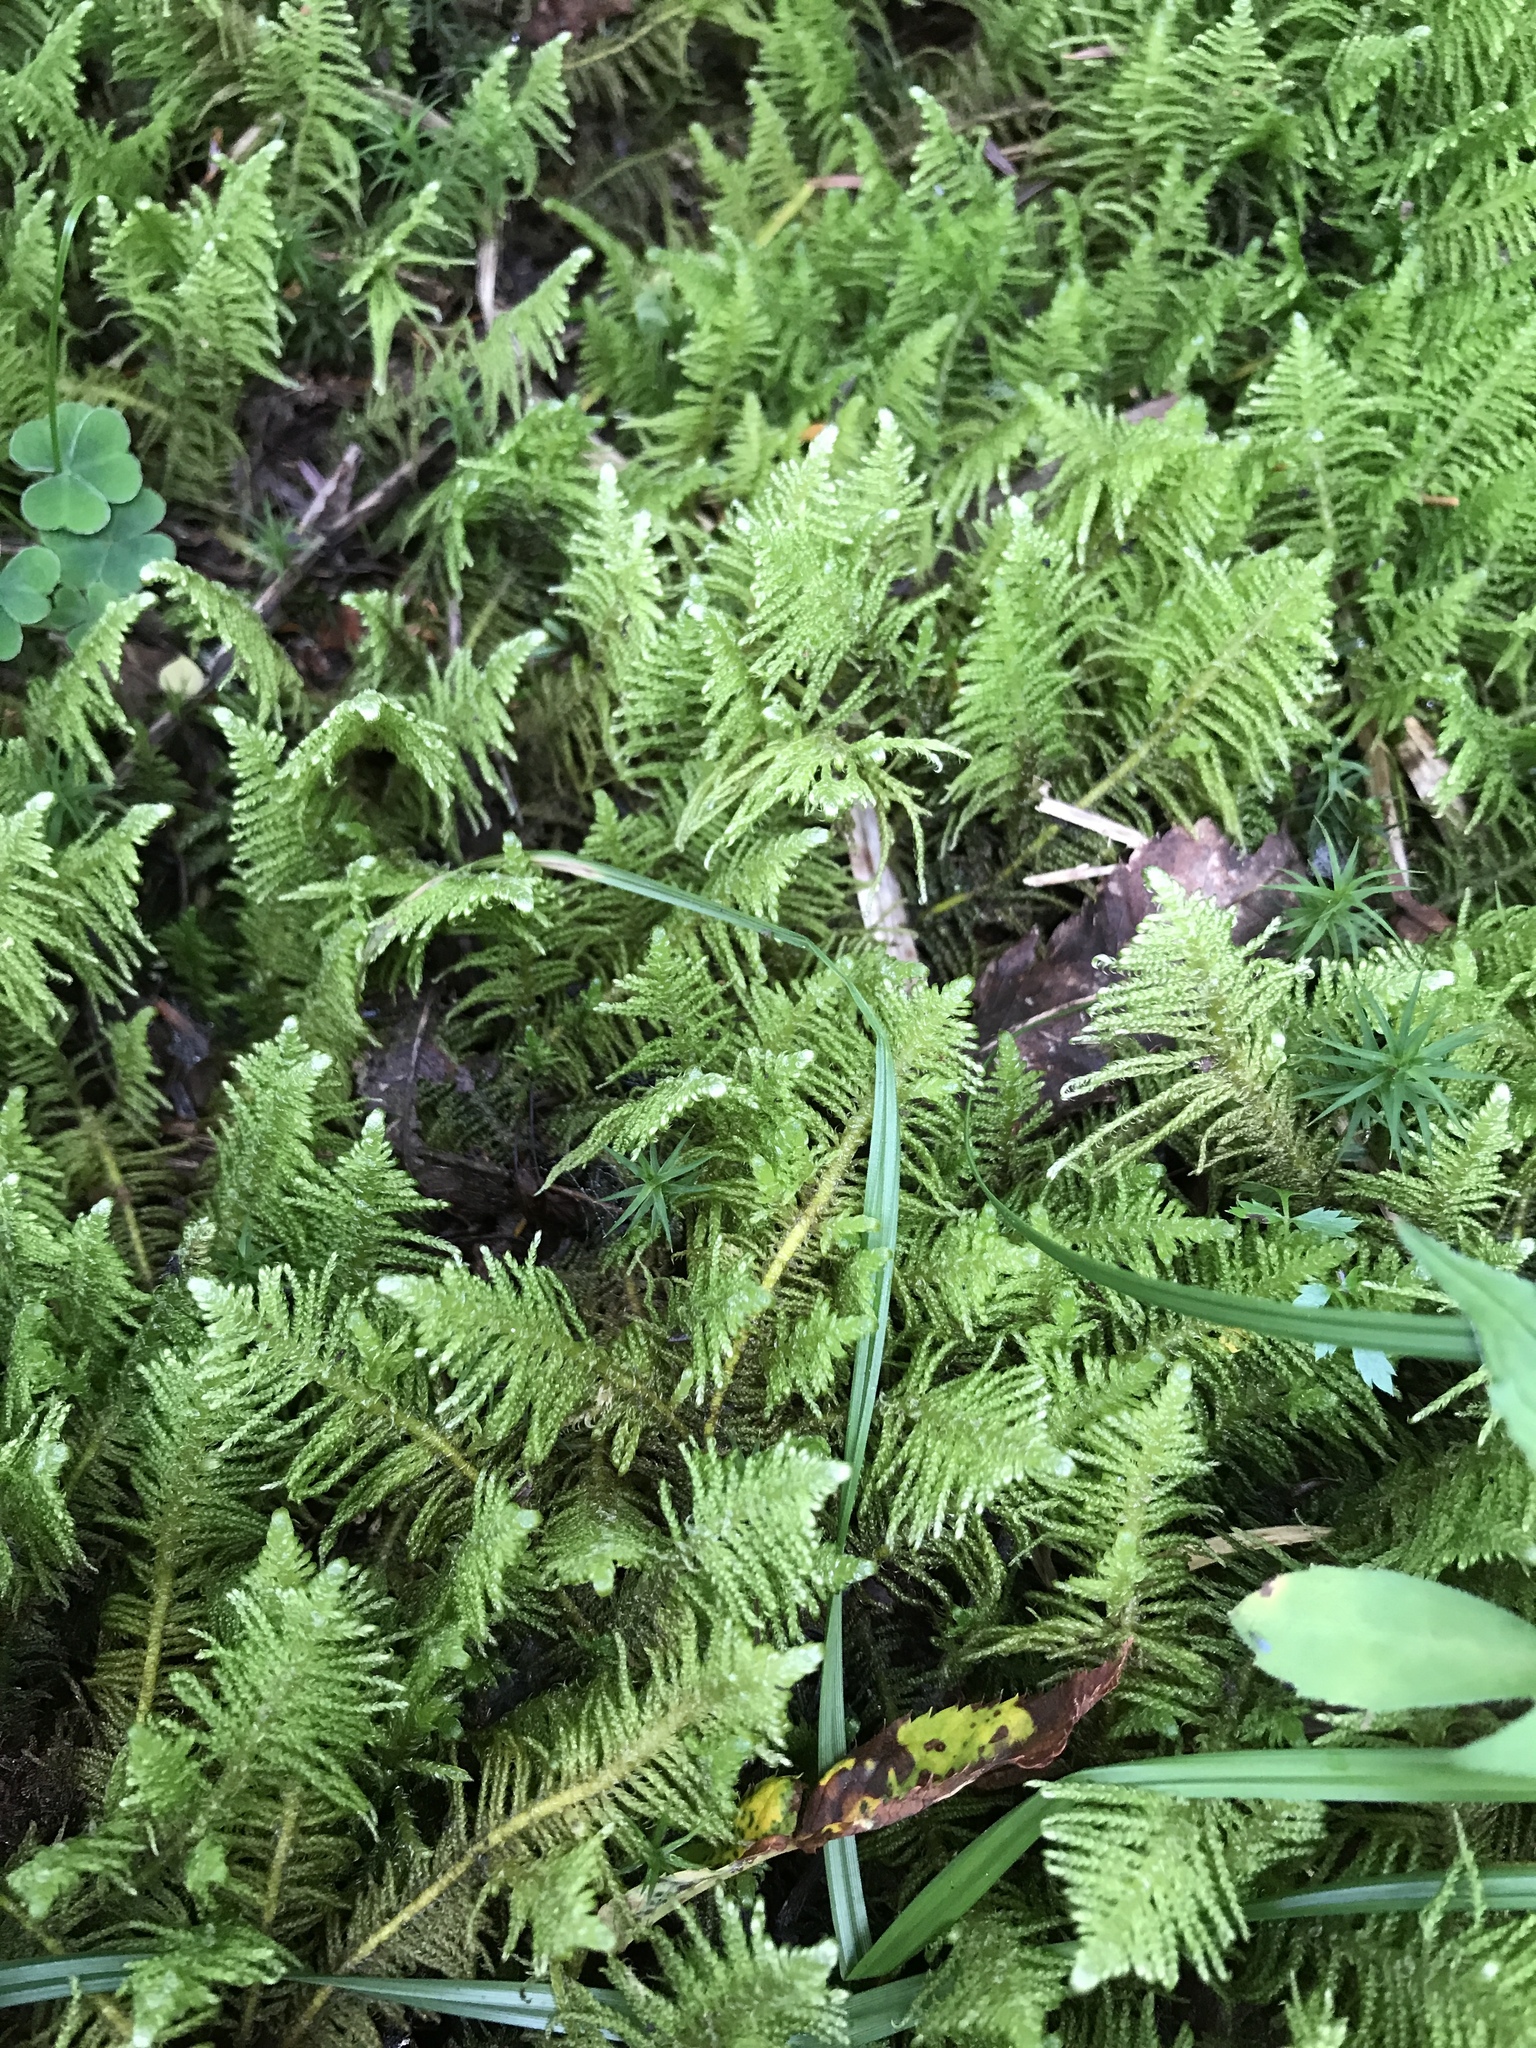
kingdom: Plantae
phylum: Bryophyta
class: Bryopsida
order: Hypnales
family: Pylaisiaceae
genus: Ptilium
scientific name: Ptilium crista-castrensis
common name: Knight's plume moss
